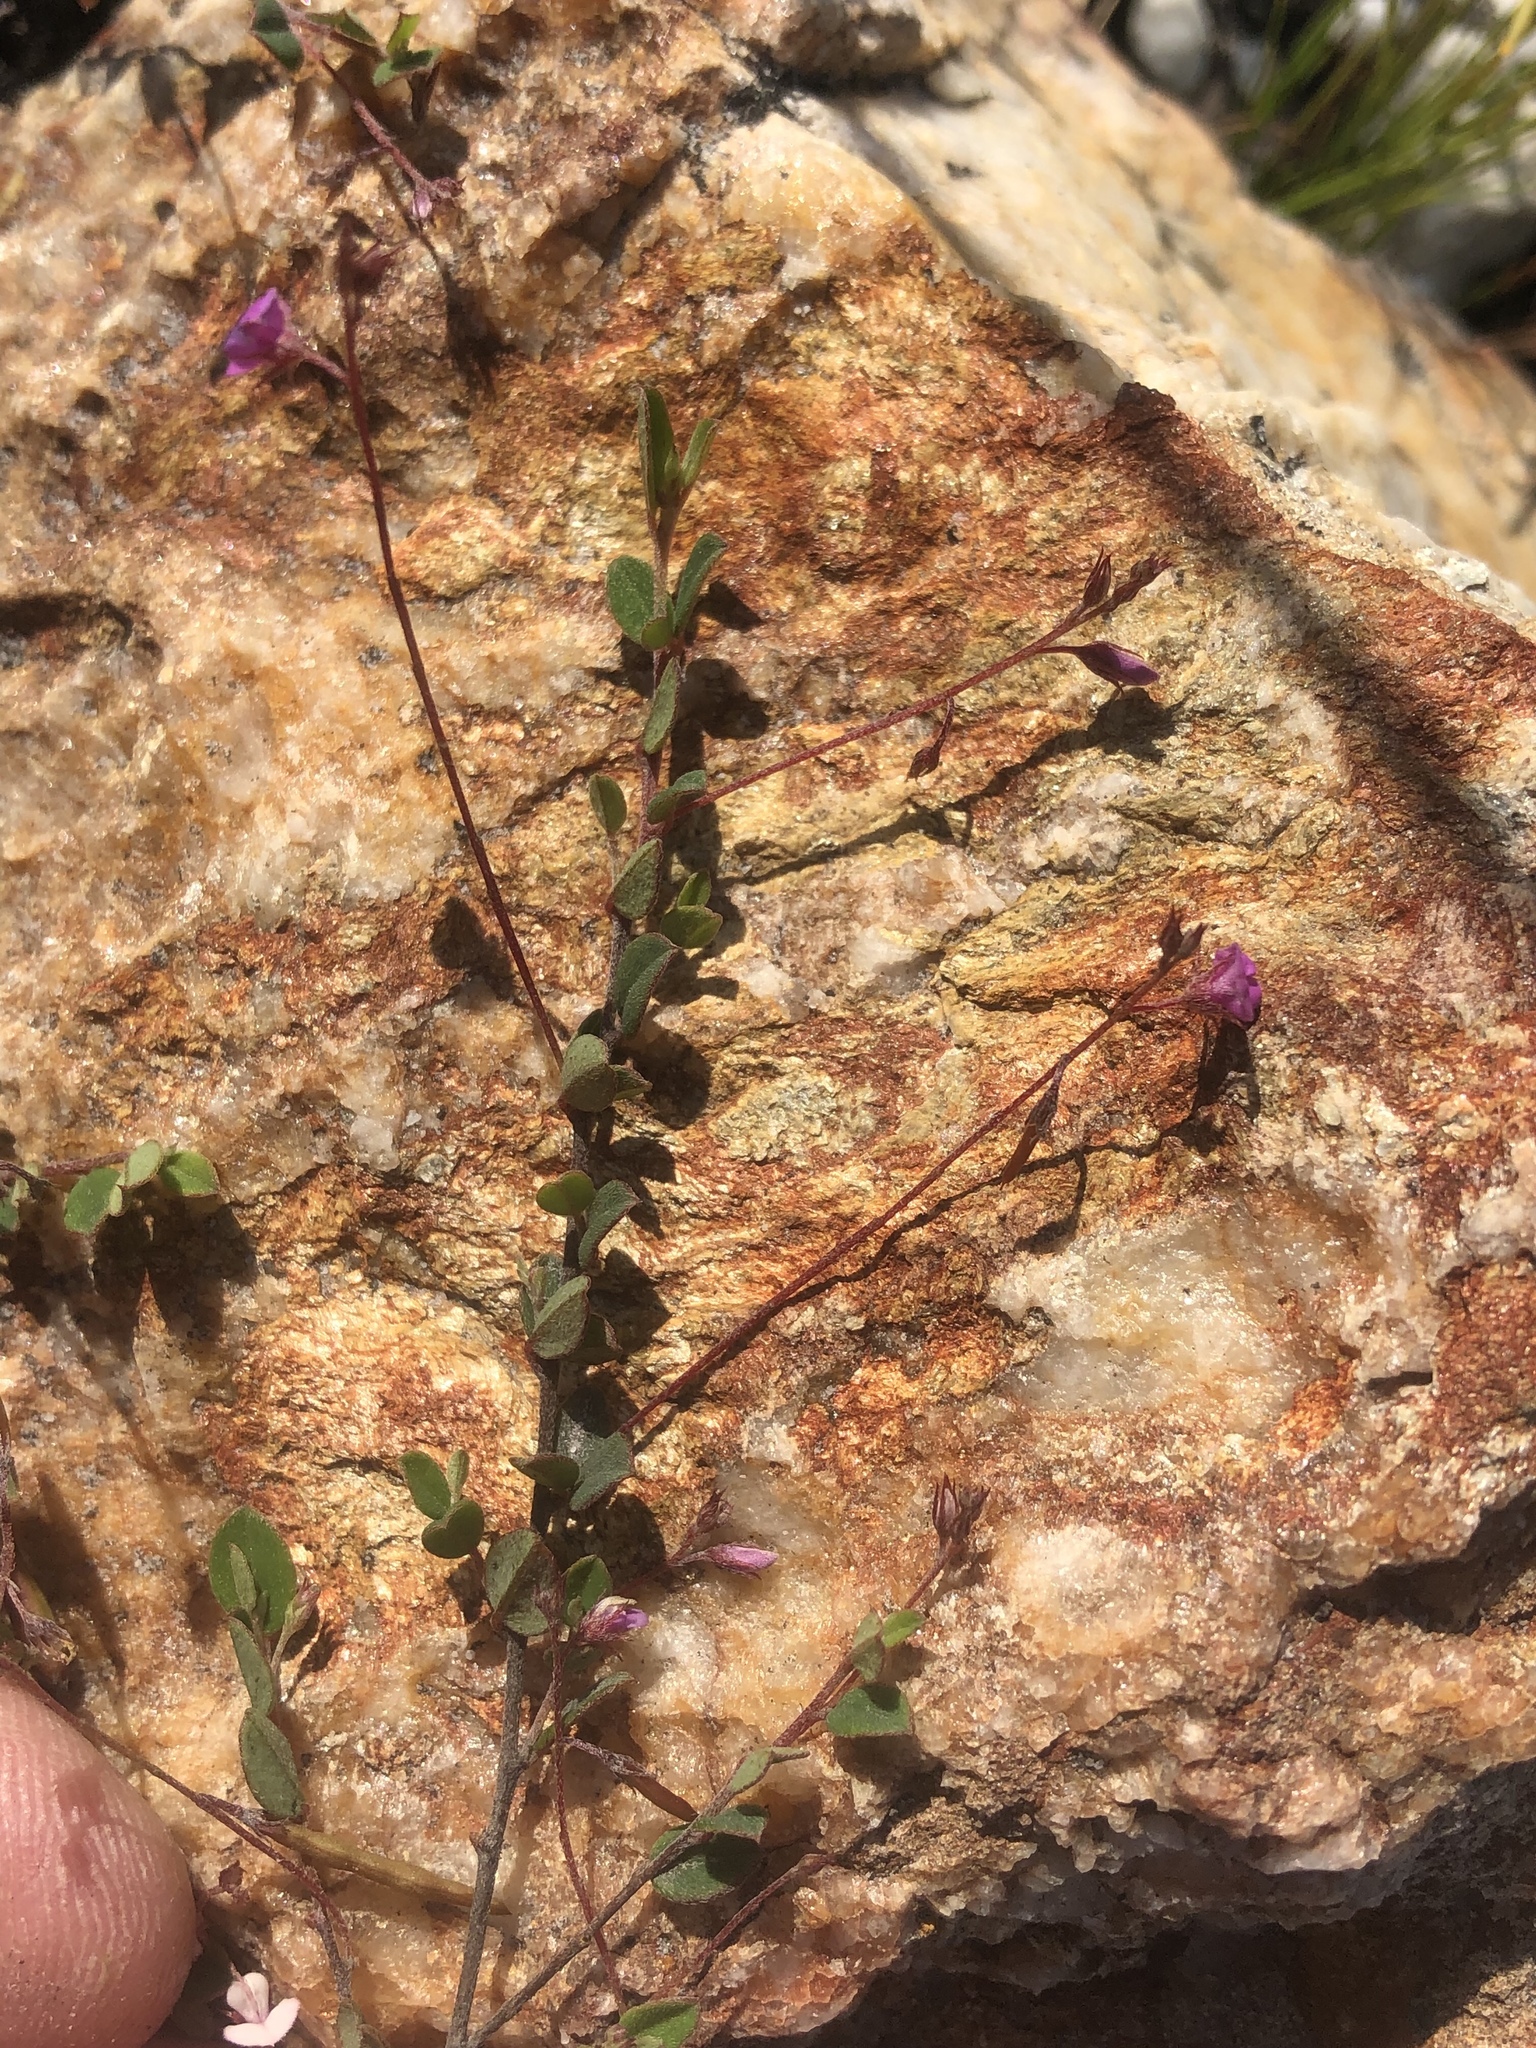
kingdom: Plantae
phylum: Tracheophyta
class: Magnoliopsida
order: Fabales
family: Fabaceae
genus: Indigofera
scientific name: Indigofera sarmentosa
